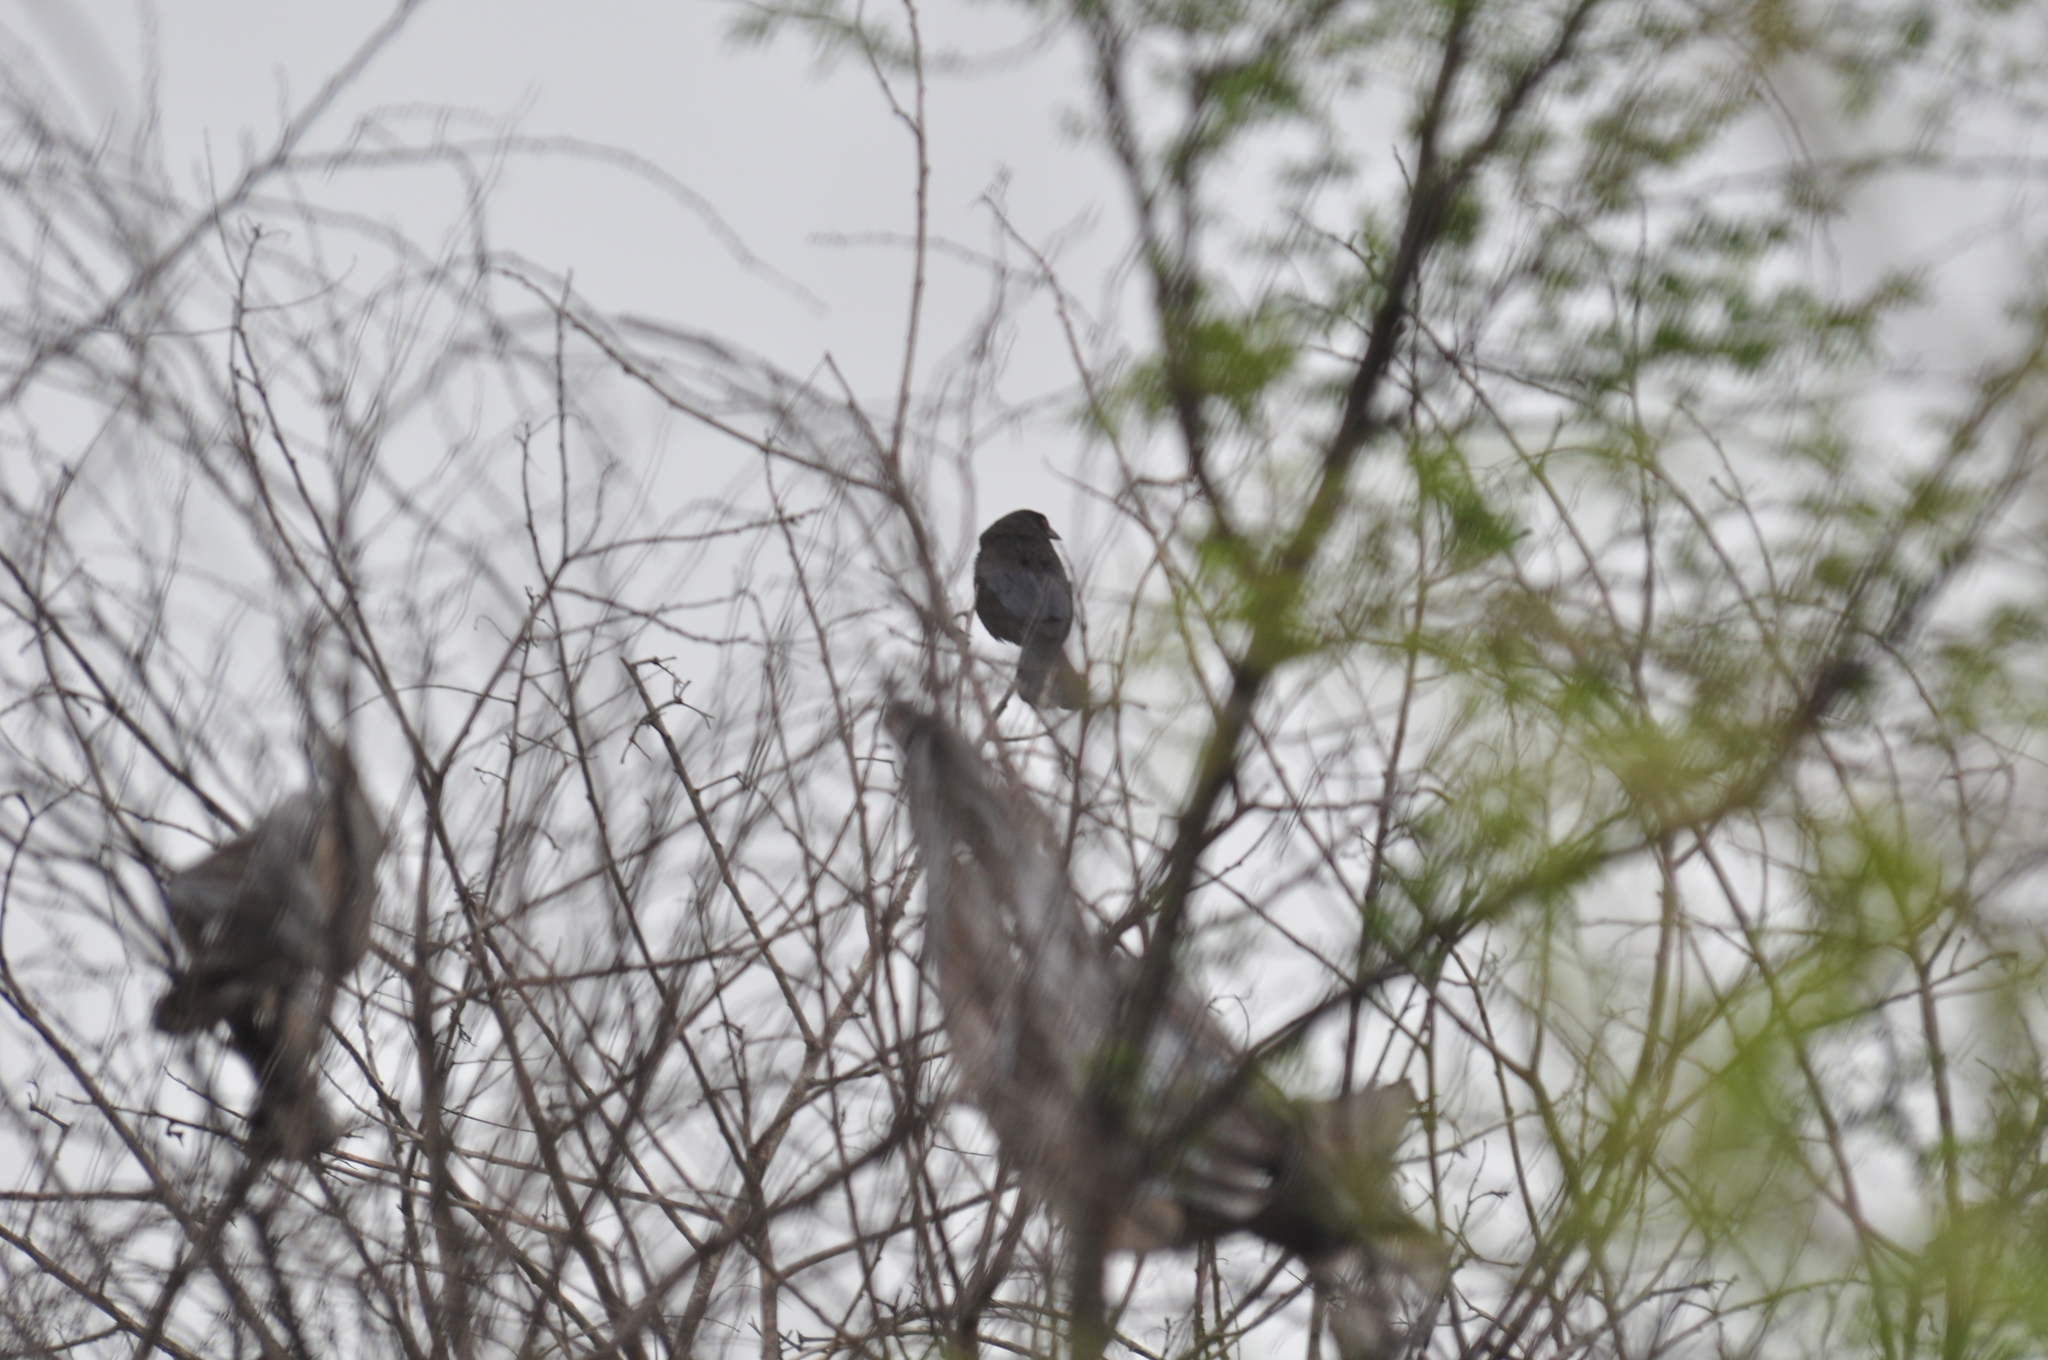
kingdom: Animalia
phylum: Chordata
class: Aves
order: Passeriformes
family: Icteridae
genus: Molothrus
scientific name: Molothrus aeneus
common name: Bronzed cowbird
